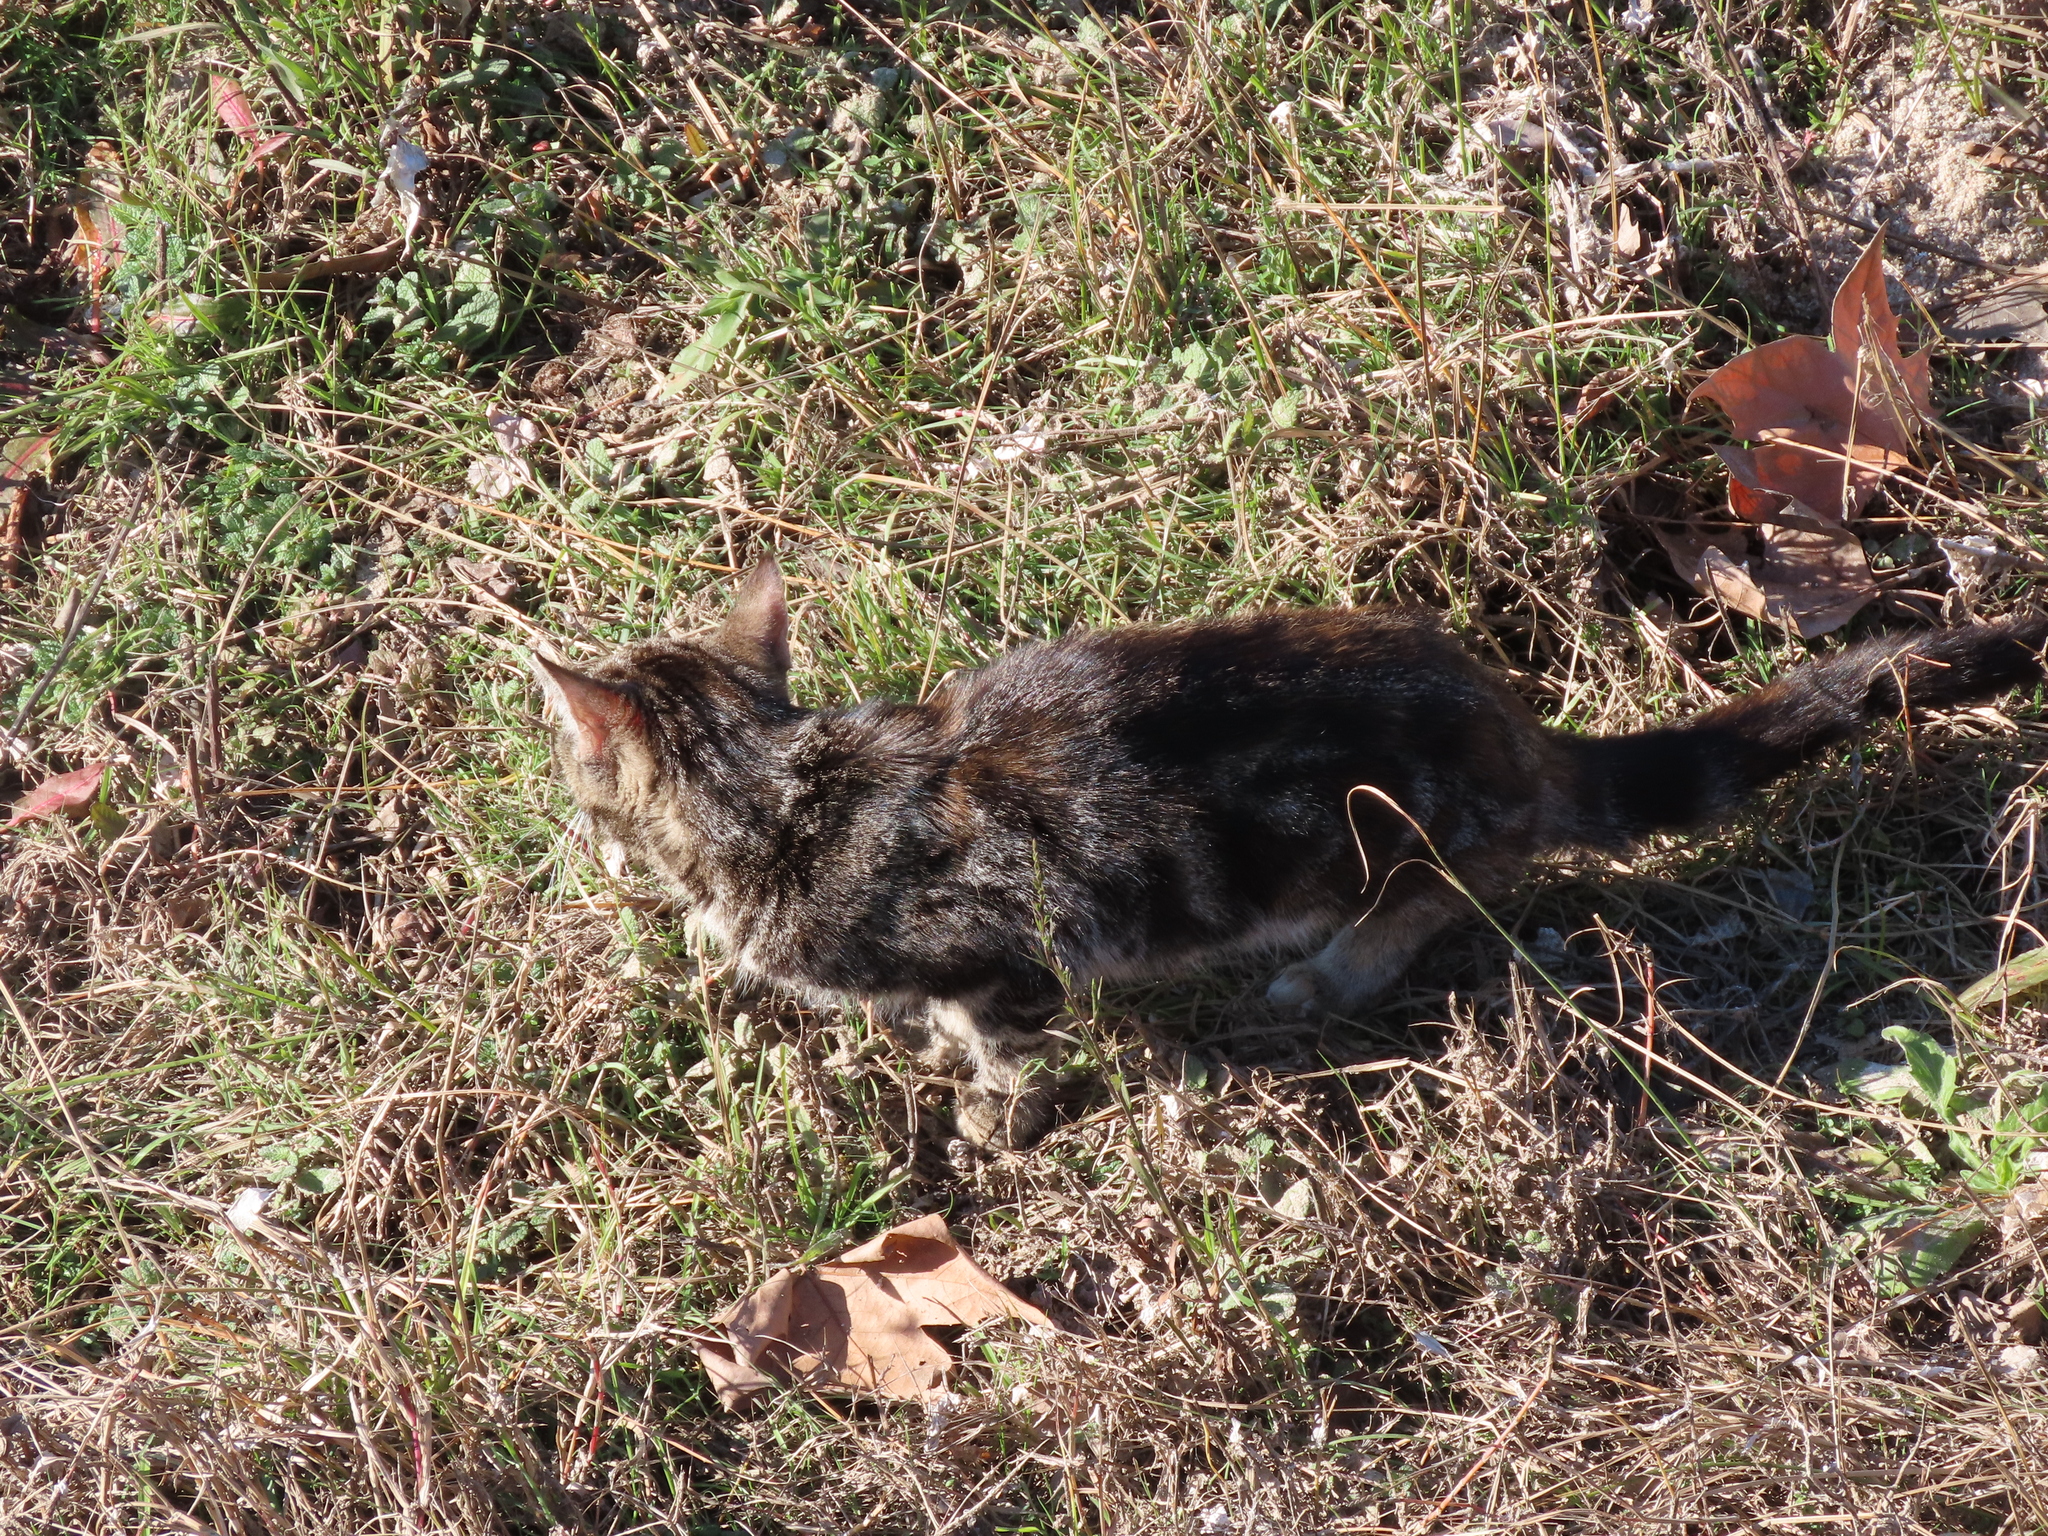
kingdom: Animalia
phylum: Chordata
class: Mammalia
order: Carnivora
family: Felidae
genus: Felis
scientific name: Felis catus
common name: Domestic cat
